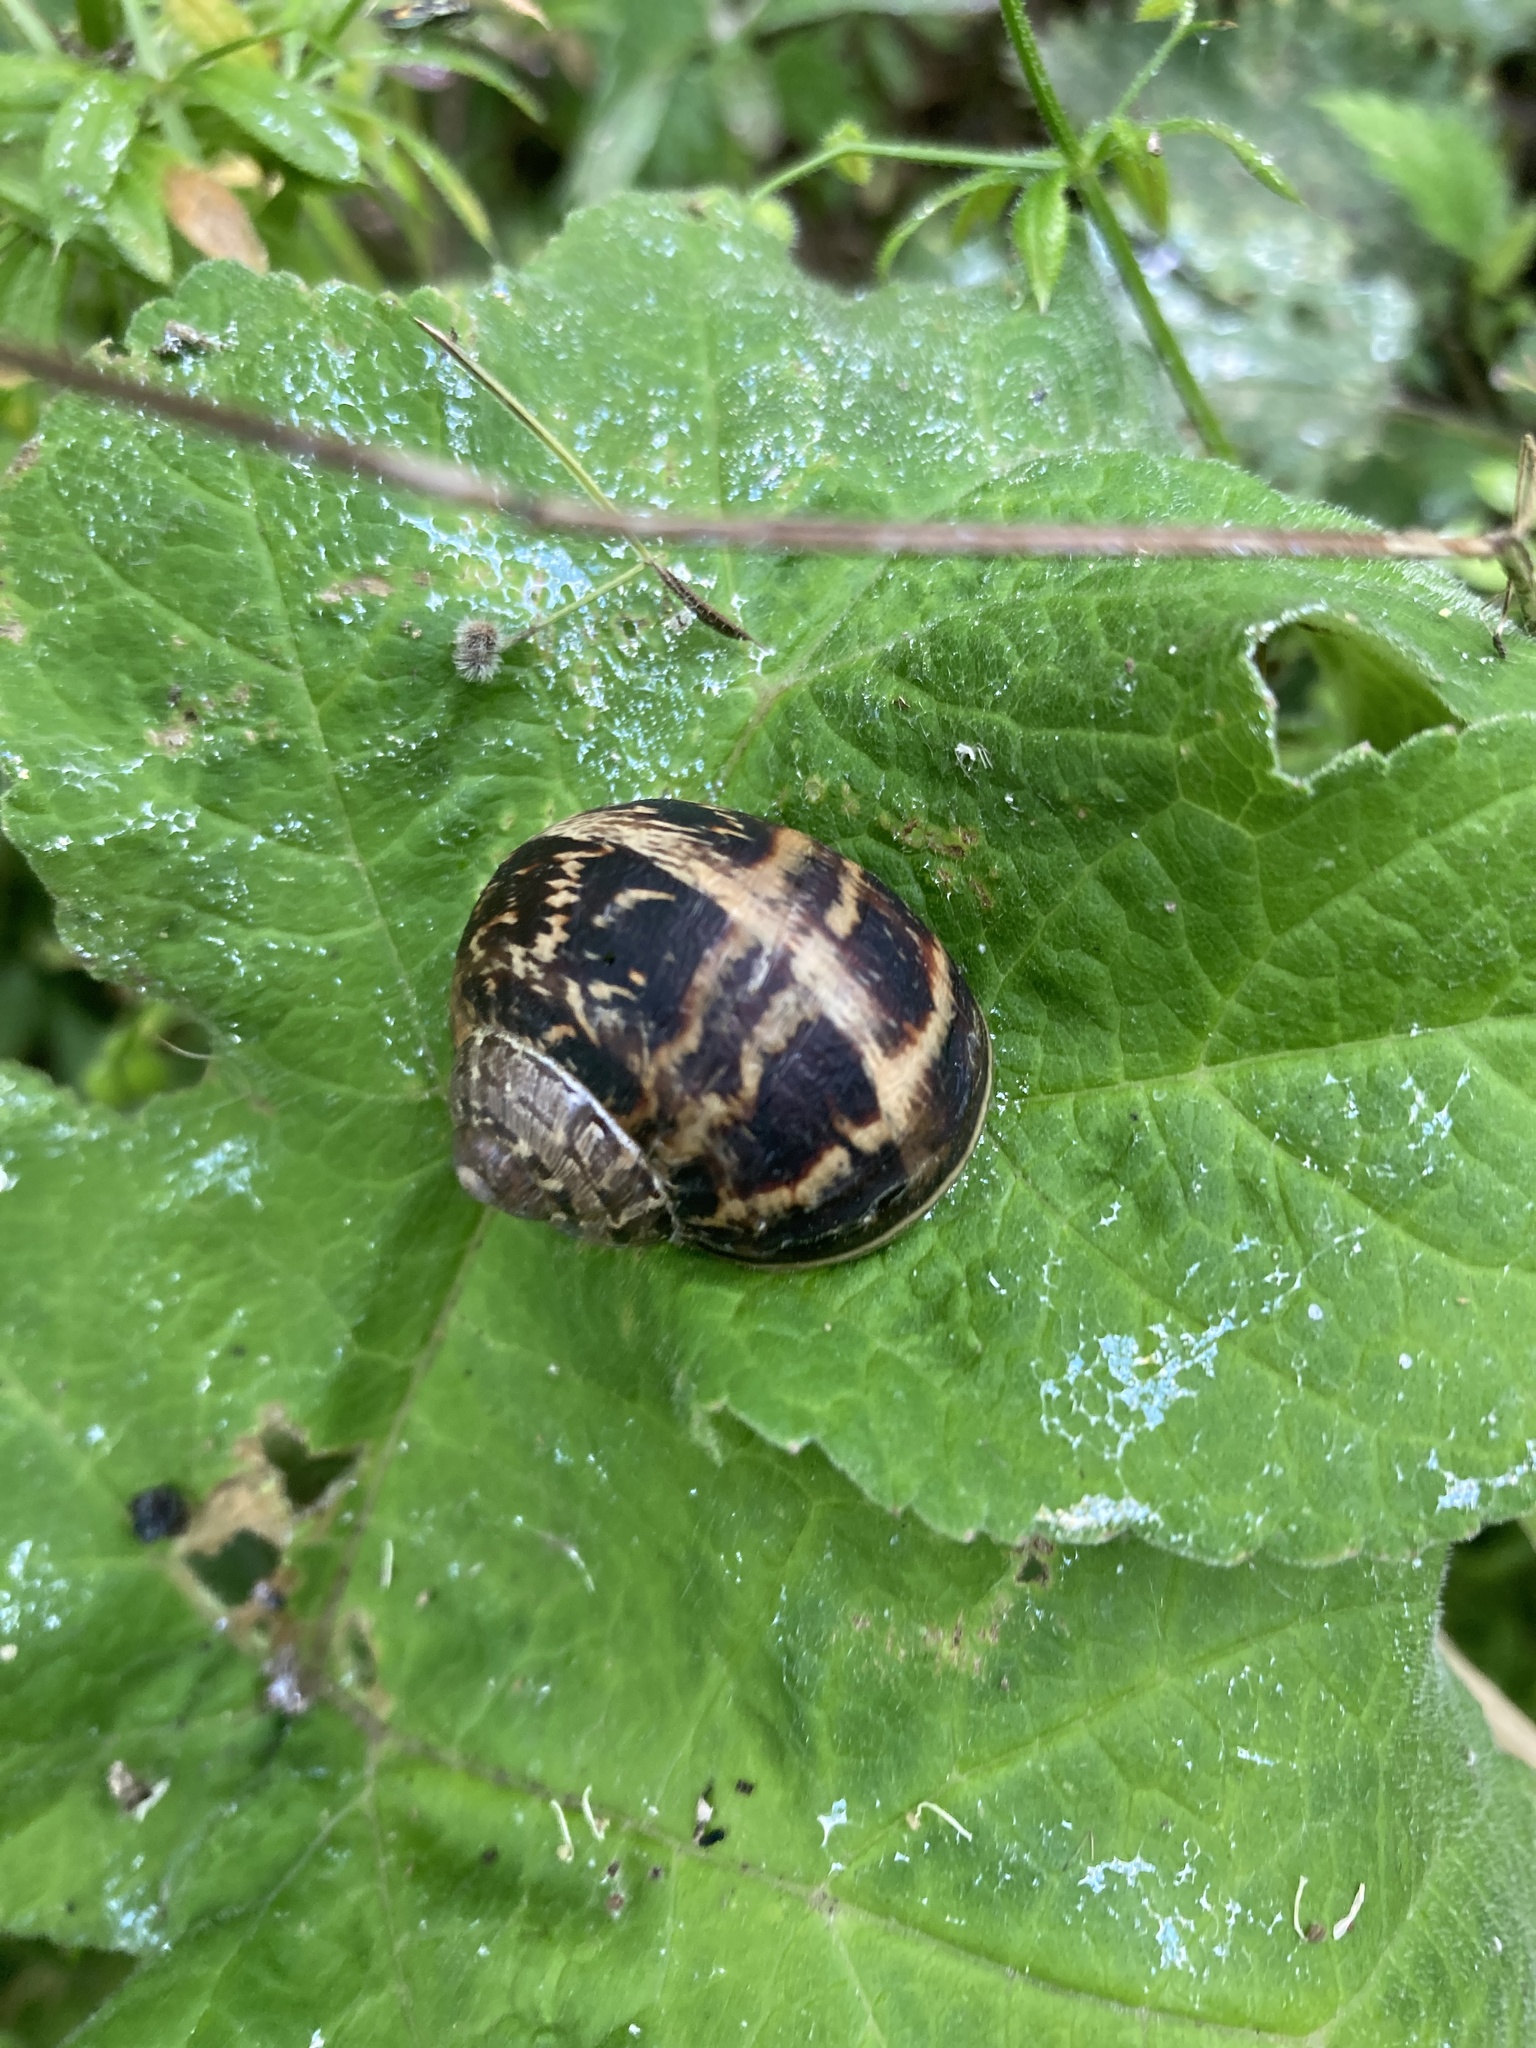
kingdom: Animalia
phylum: Mollusca
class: Gastropoda
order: Stylommatophora
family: Helicidae
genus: Cornu
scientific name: Cornu aspersum
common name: Brown garden snail
